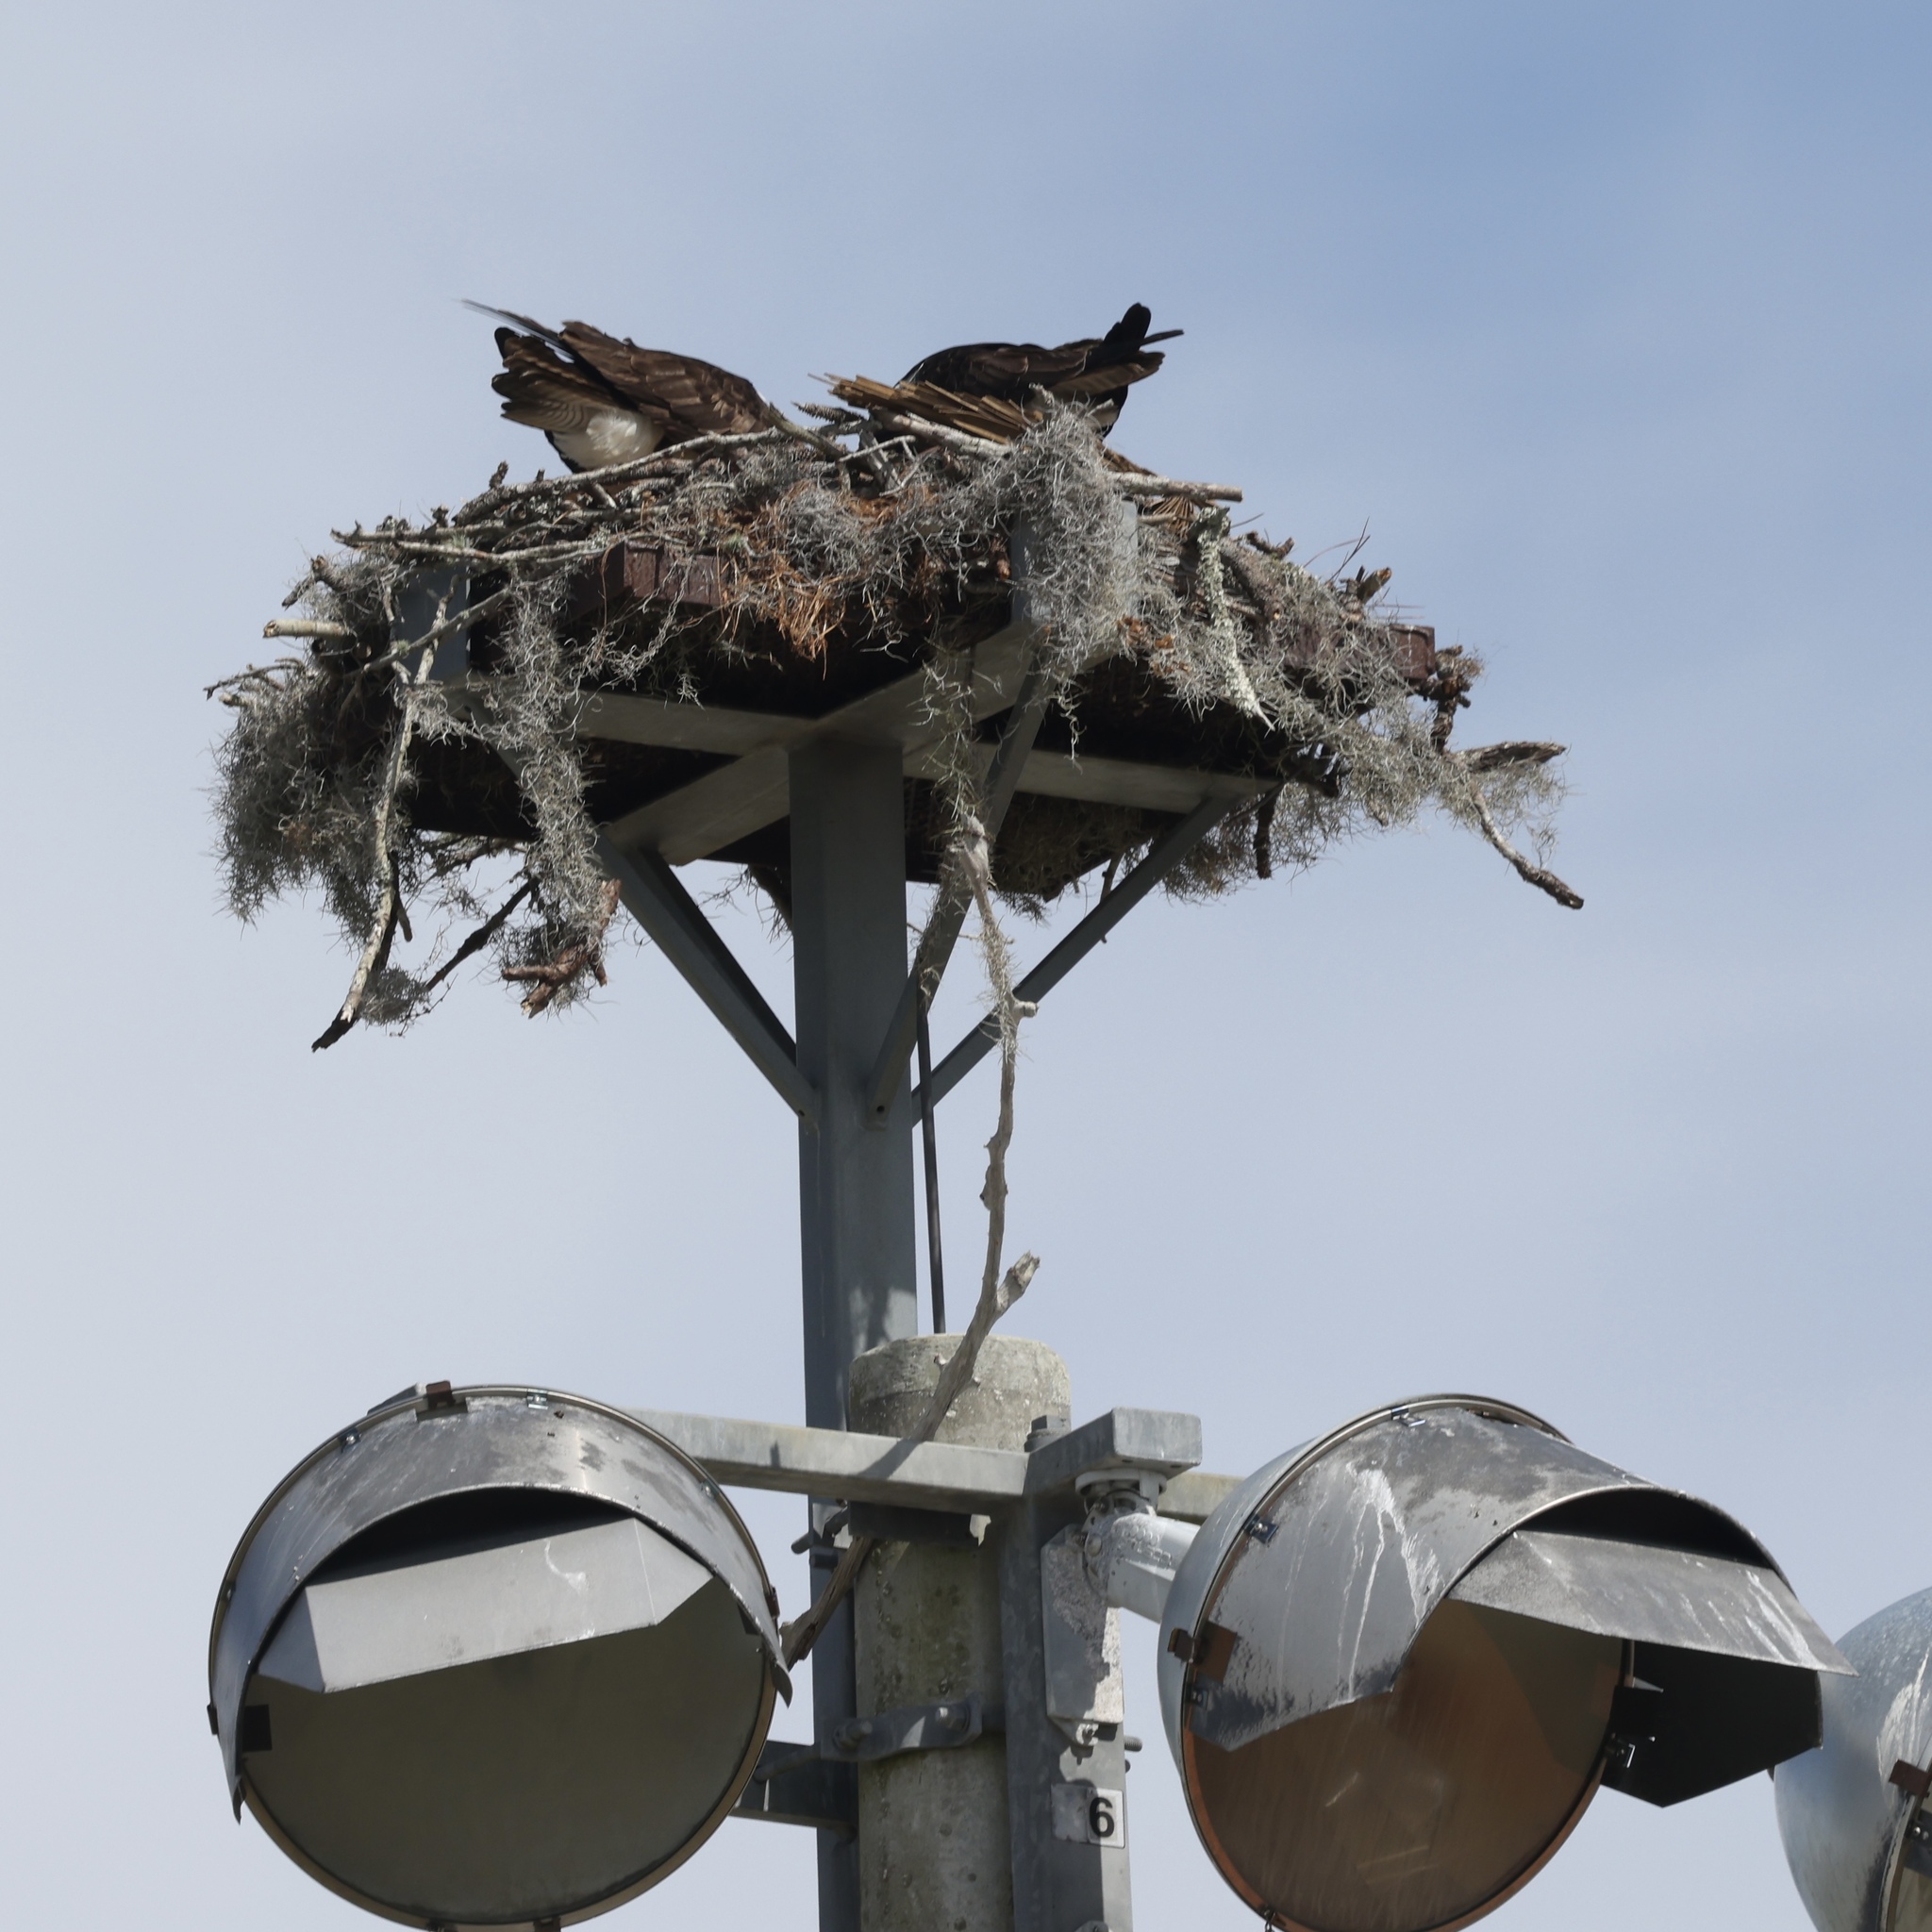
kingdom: Animalia
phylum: Chordata
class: Aves
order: Accipitriformes
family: Pandionidae
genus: Pandion
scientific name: Pandion haliaetus
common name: Osprey
